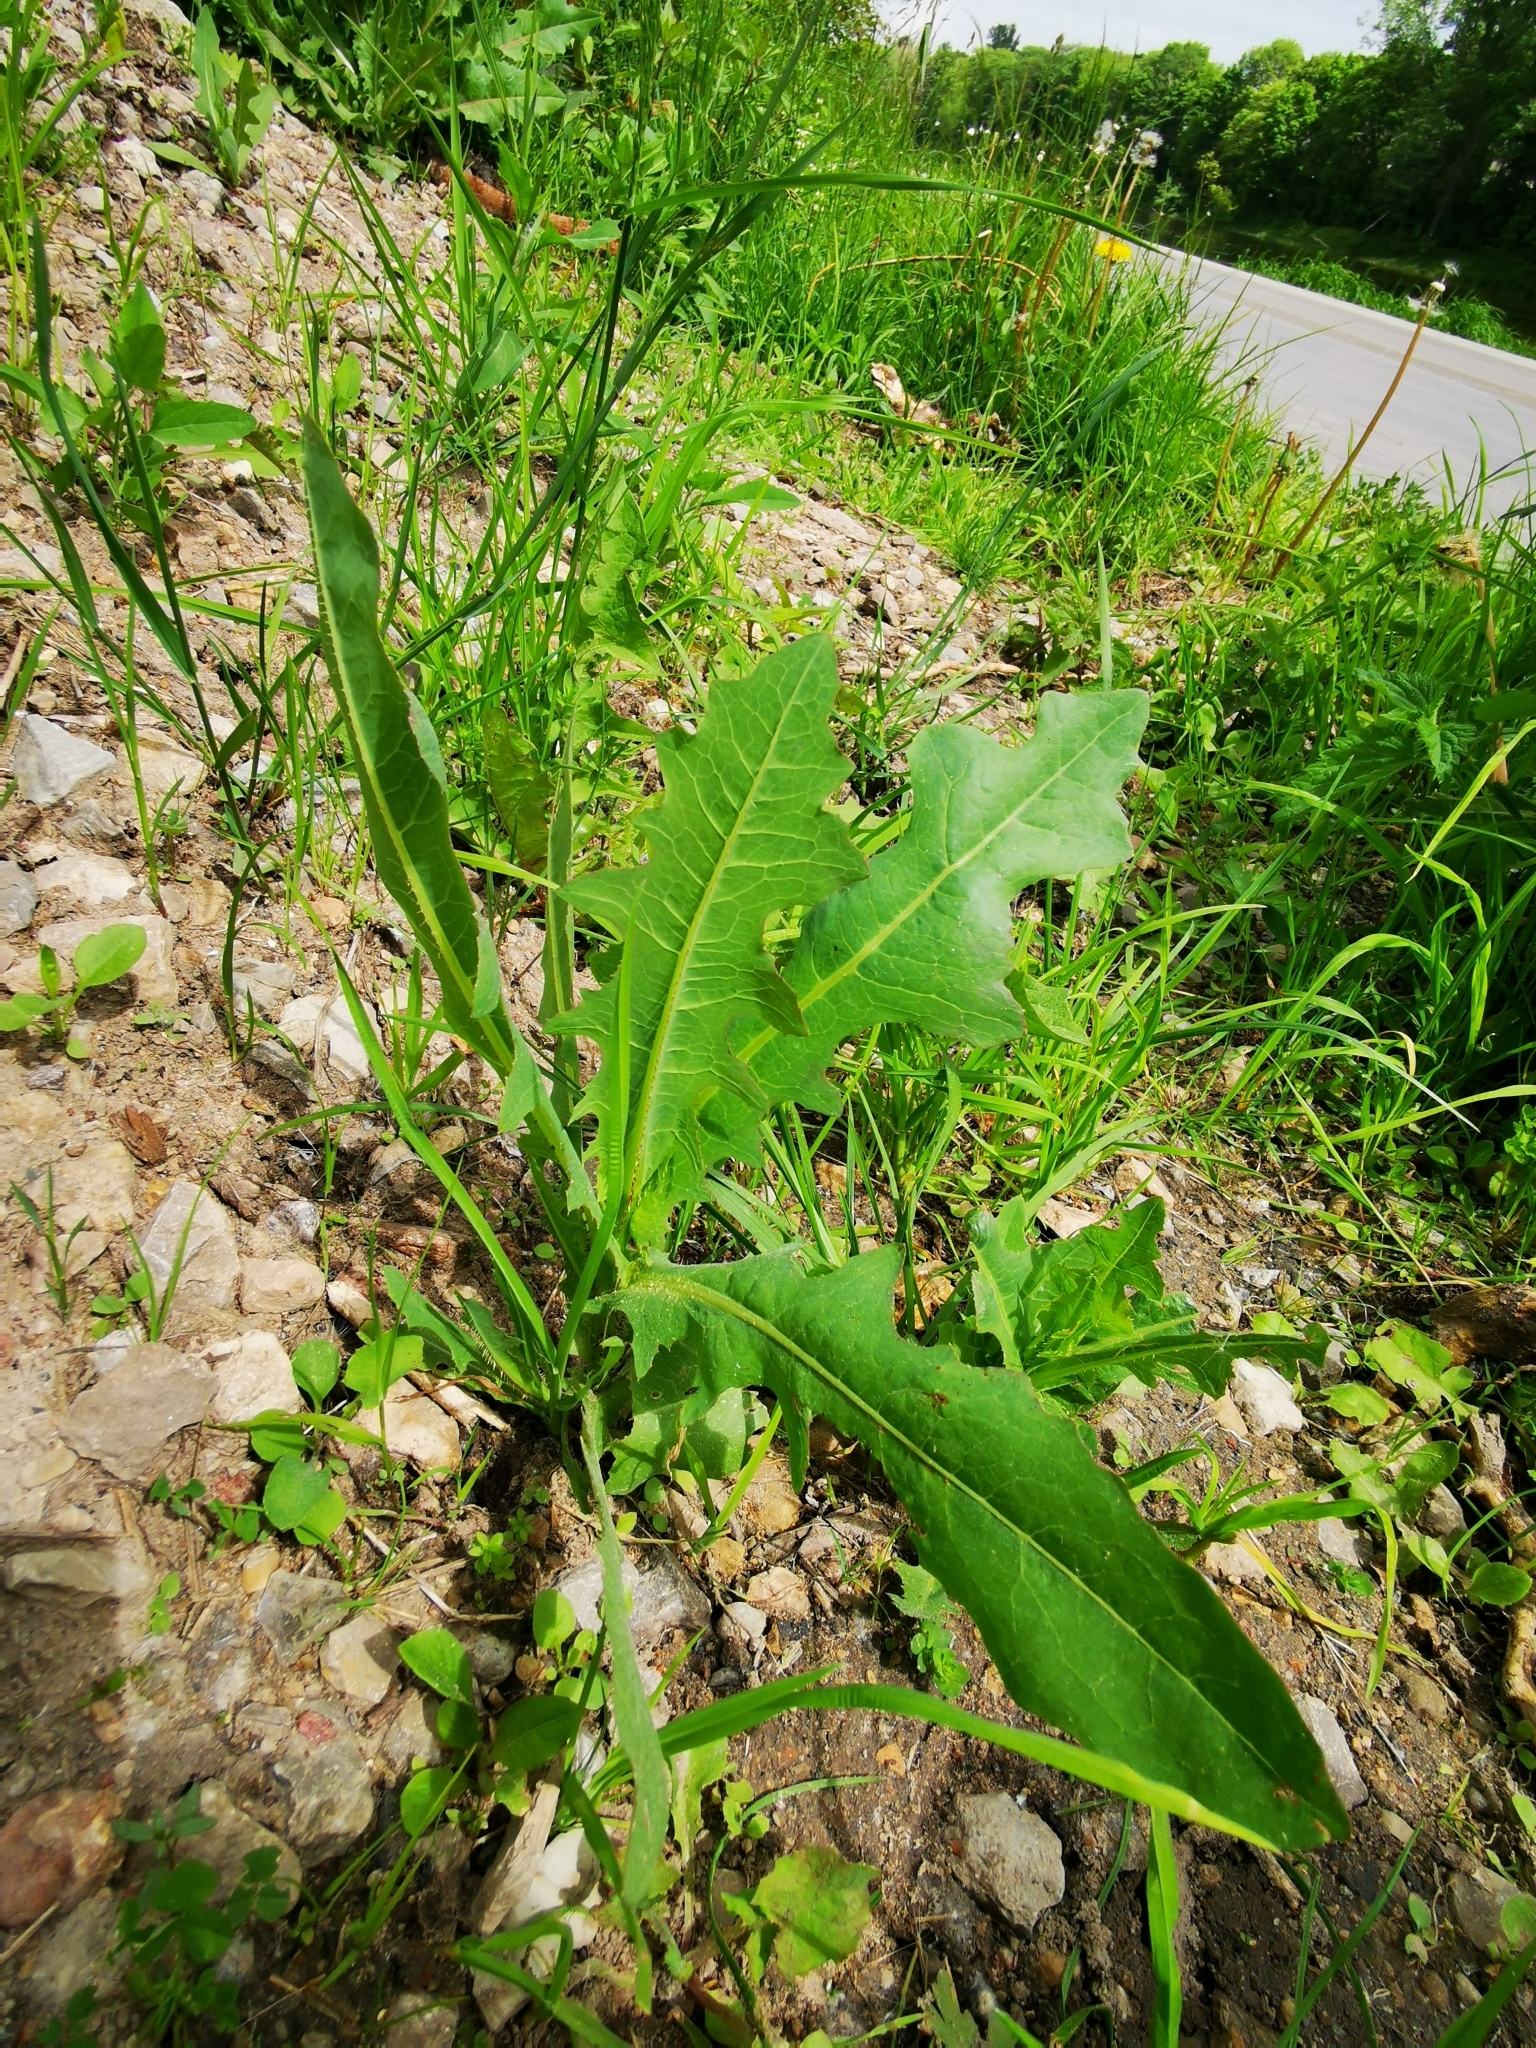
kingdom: Plantae
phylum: Tracheophyta
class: Magnoliopsida
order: Asterales
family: Asteraceae
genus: Lactuca
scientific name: Lactuca serriola
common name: Prickly lettuce
